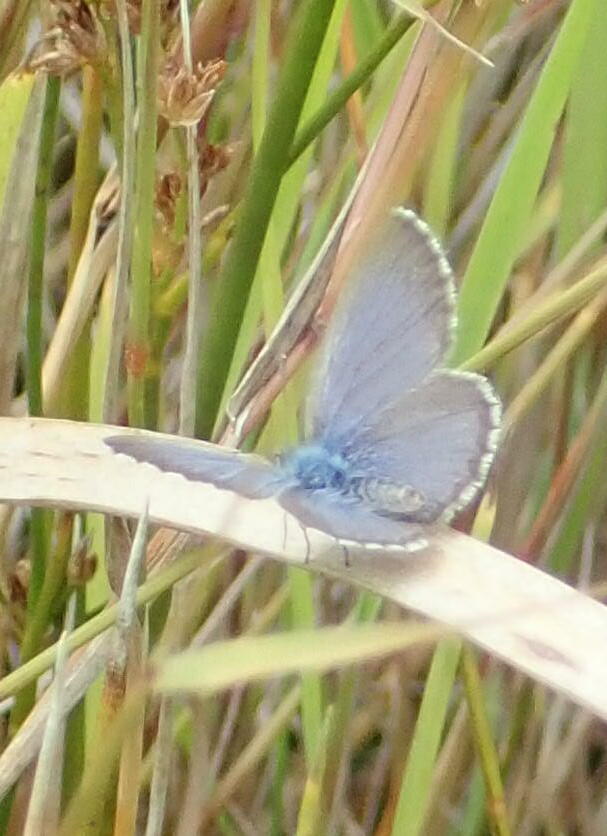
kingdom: Animalia
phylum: Arthropoda
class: Insecta
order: Lepidoptera
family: Lycaenidae
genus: Zizina
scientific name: Zizina labradus
